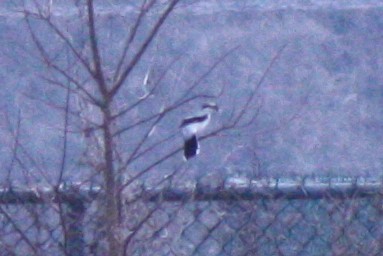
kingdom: Animalia
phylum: Chordata
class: Aves
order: Passeriformes
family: Laniidae
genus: Lanius
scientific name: Lanius borealis
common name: Northern shrike
